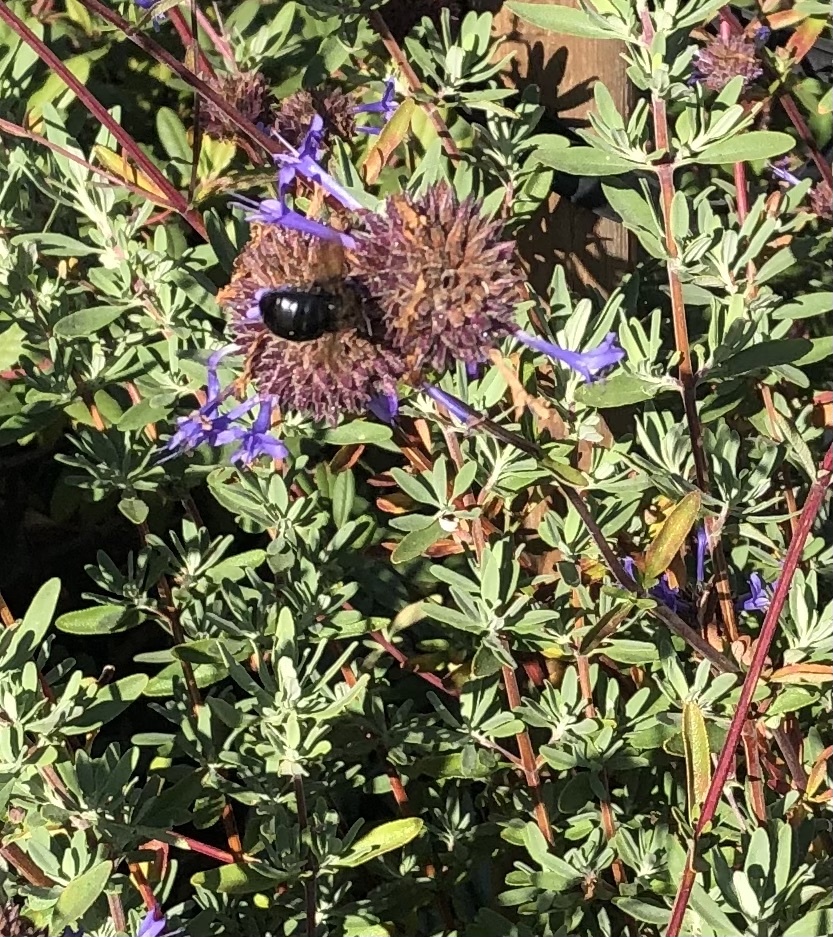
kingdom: Animalia
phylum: Arthropoda
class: Insecta
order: Hymenoptera
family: Apidae
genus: Xylocopa
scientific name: Xylocopa tabaniformis
